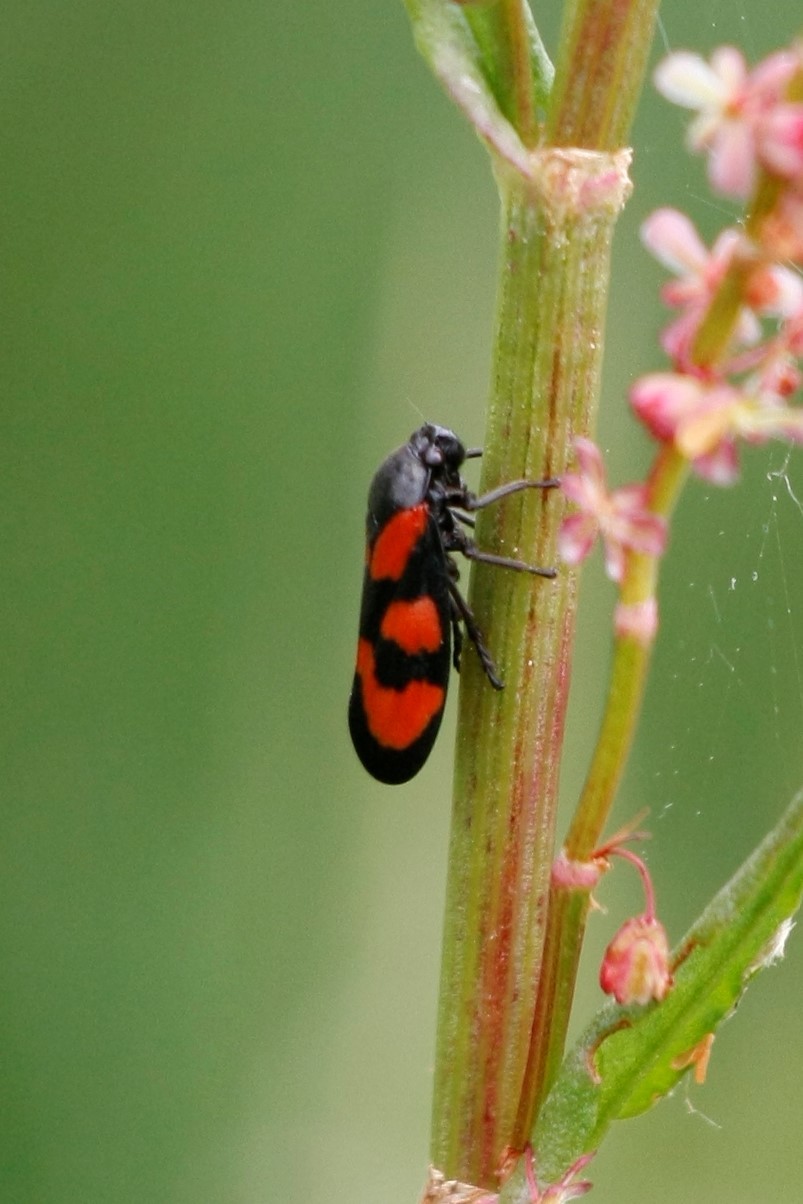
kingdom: Animalia
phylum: Arthropoda
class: Insecta
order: Hemiptera
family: Cercopidae
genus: Cercopis
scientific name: Cercopis vulnerata
